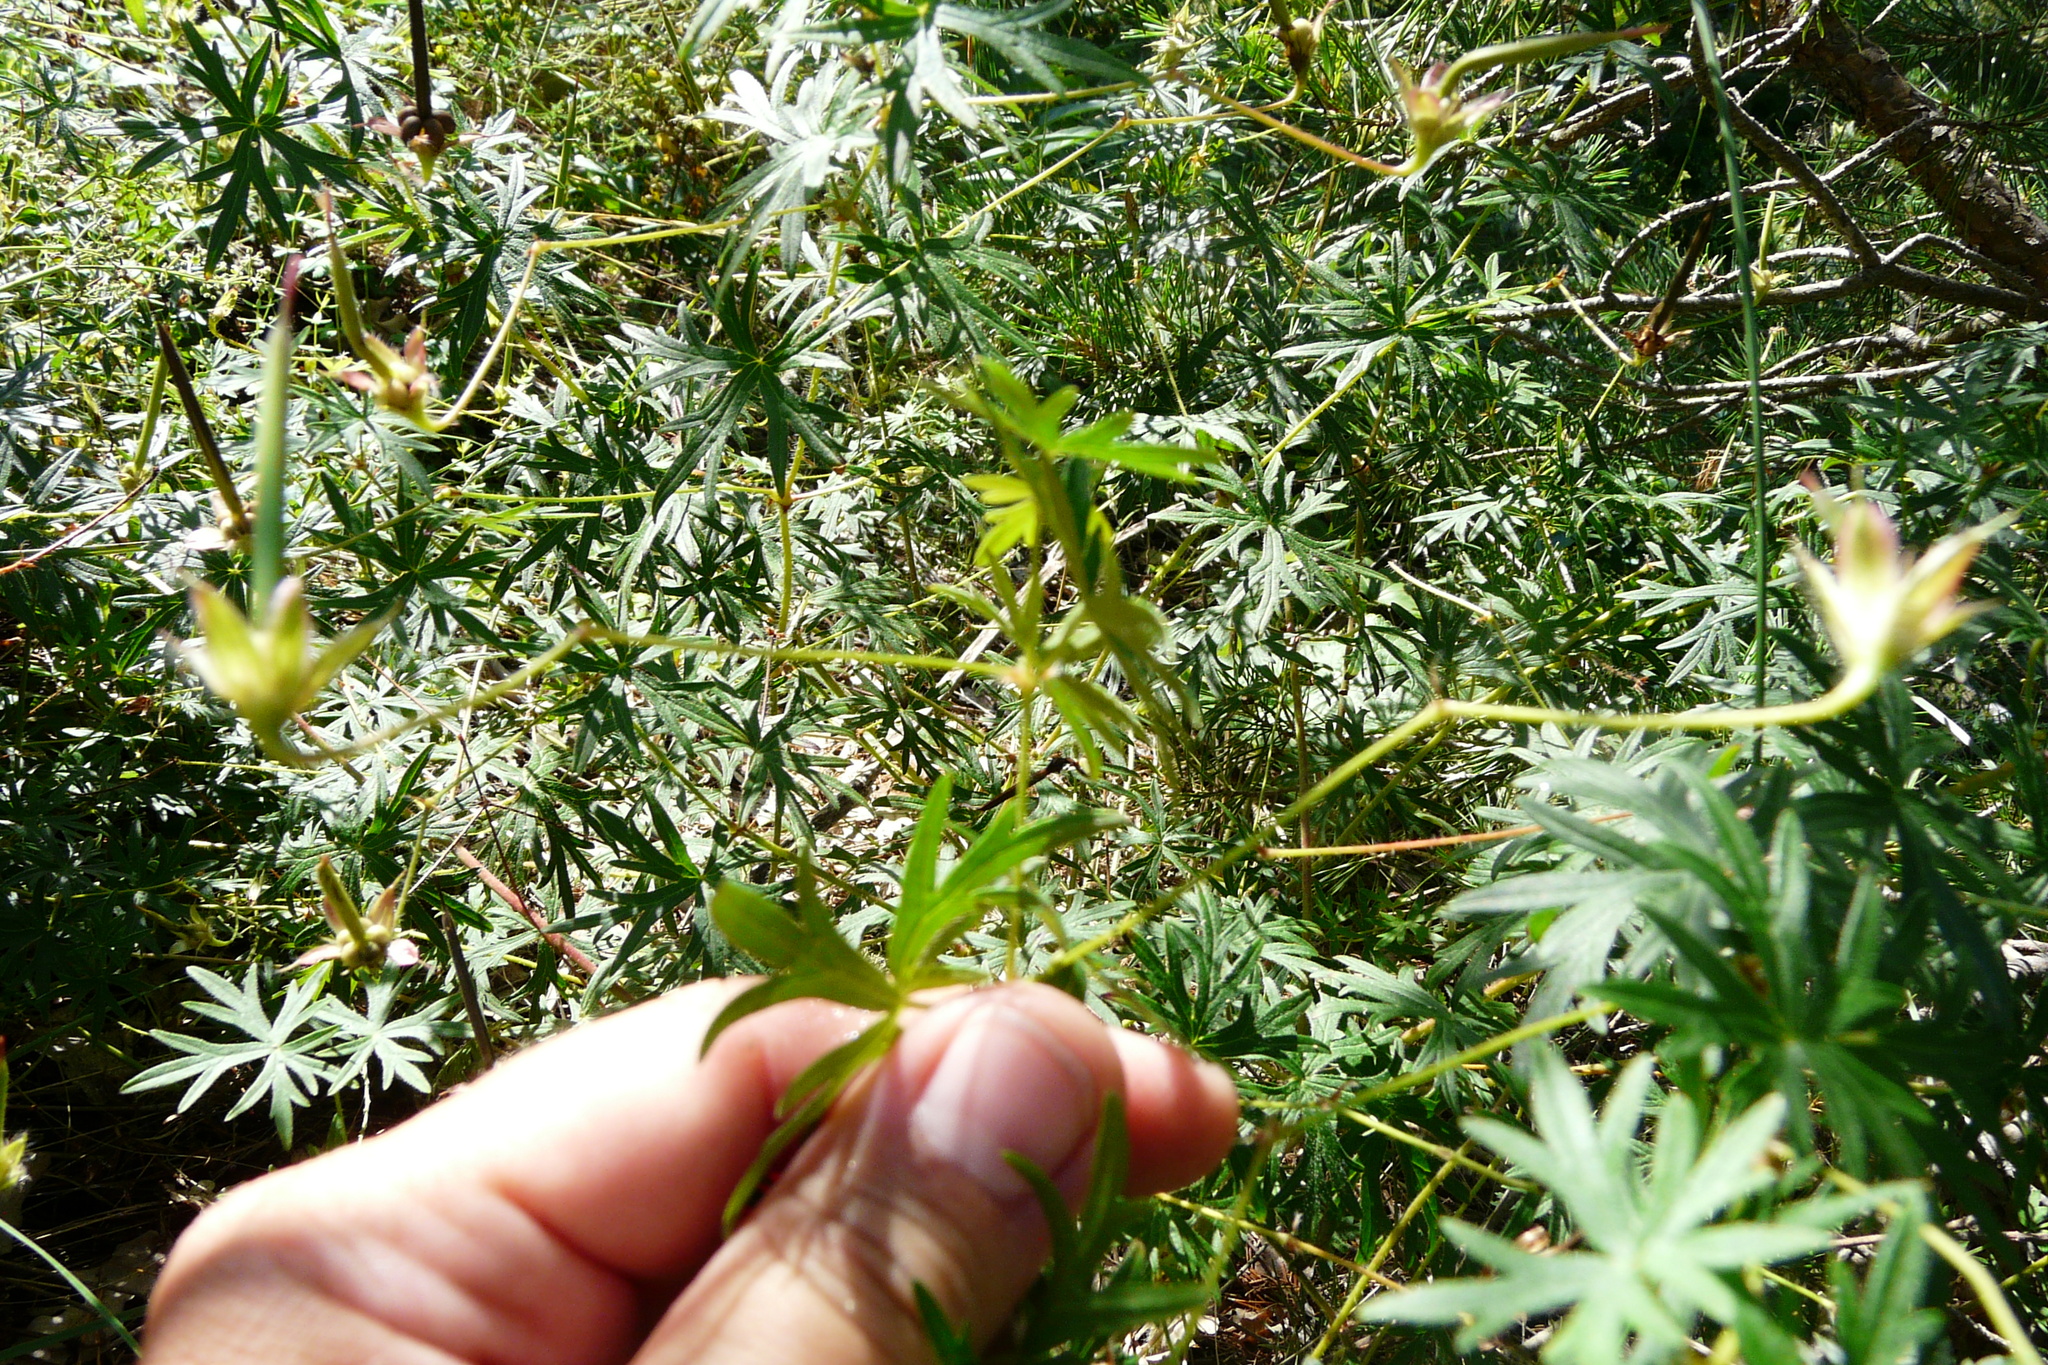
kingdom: Plantae
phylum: Tracheophyta
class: Magnoliopsida
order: Geraniales
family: Geraniaceae
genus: Geranium
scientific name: Geranium sanguineum
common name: Bloody crane's-bill
